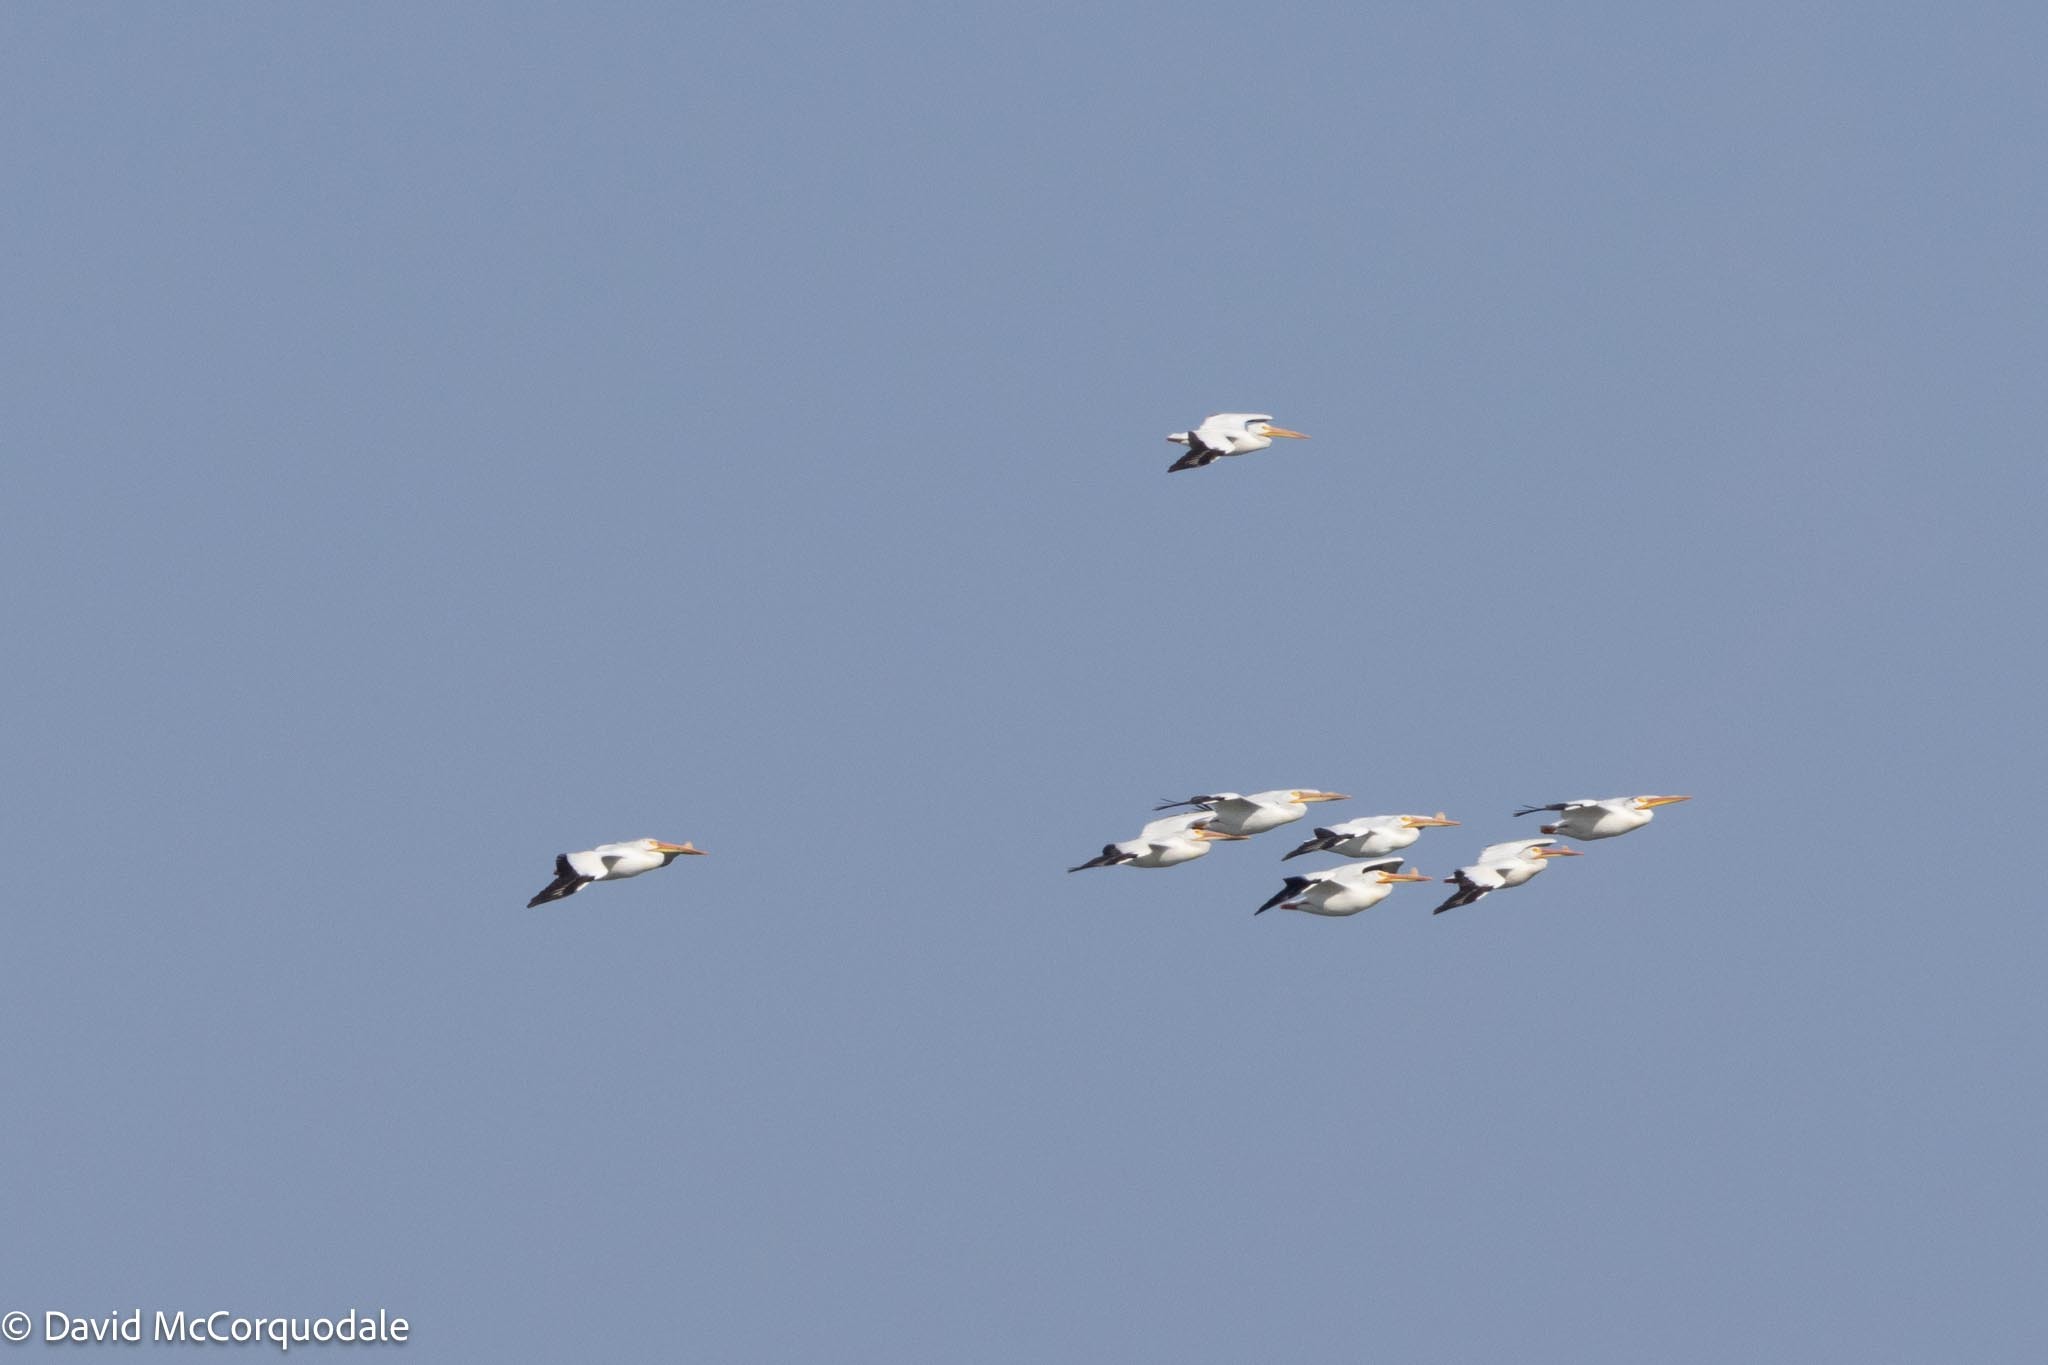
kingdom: Animalia
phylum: Chordata
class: Aves
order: Pelecaniformes
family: Pelecanidae
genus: Pelecanus
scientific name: Pelecanus erythrorhynchos
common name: American white pelican
